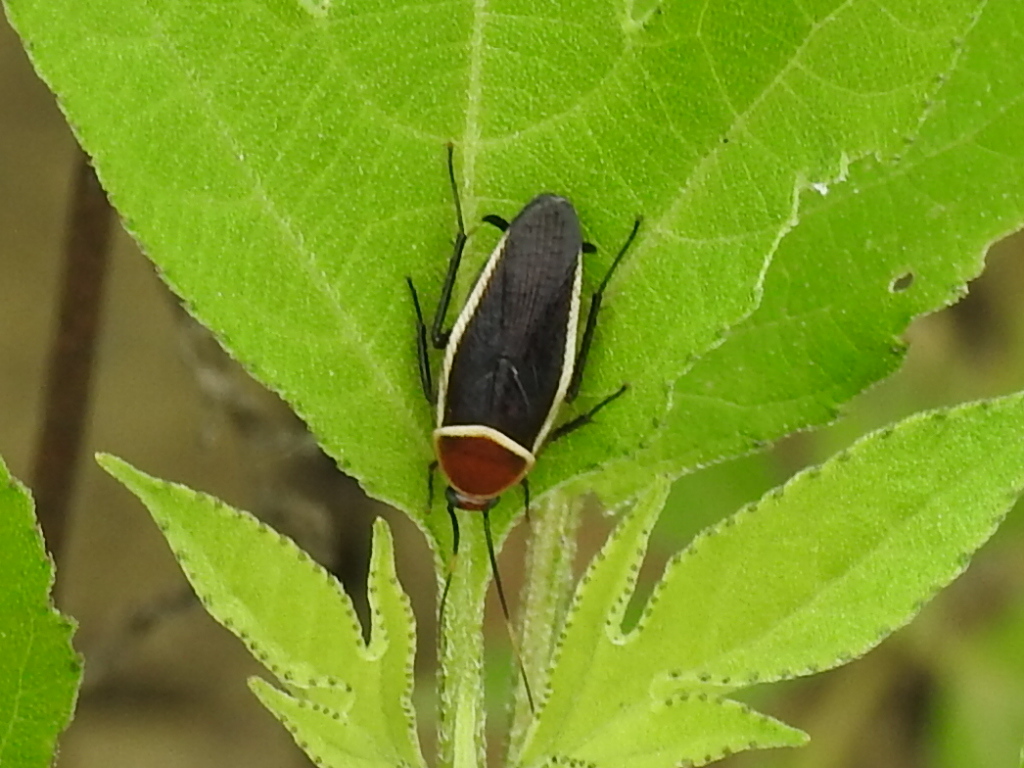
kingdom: Animalia
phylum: Arthropoda
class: Insecta
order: Blattodea
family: Ectobiidae
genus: Pseudomops
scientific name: Pseudomops septentrionalis
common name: Pale-bordered field cockroach
